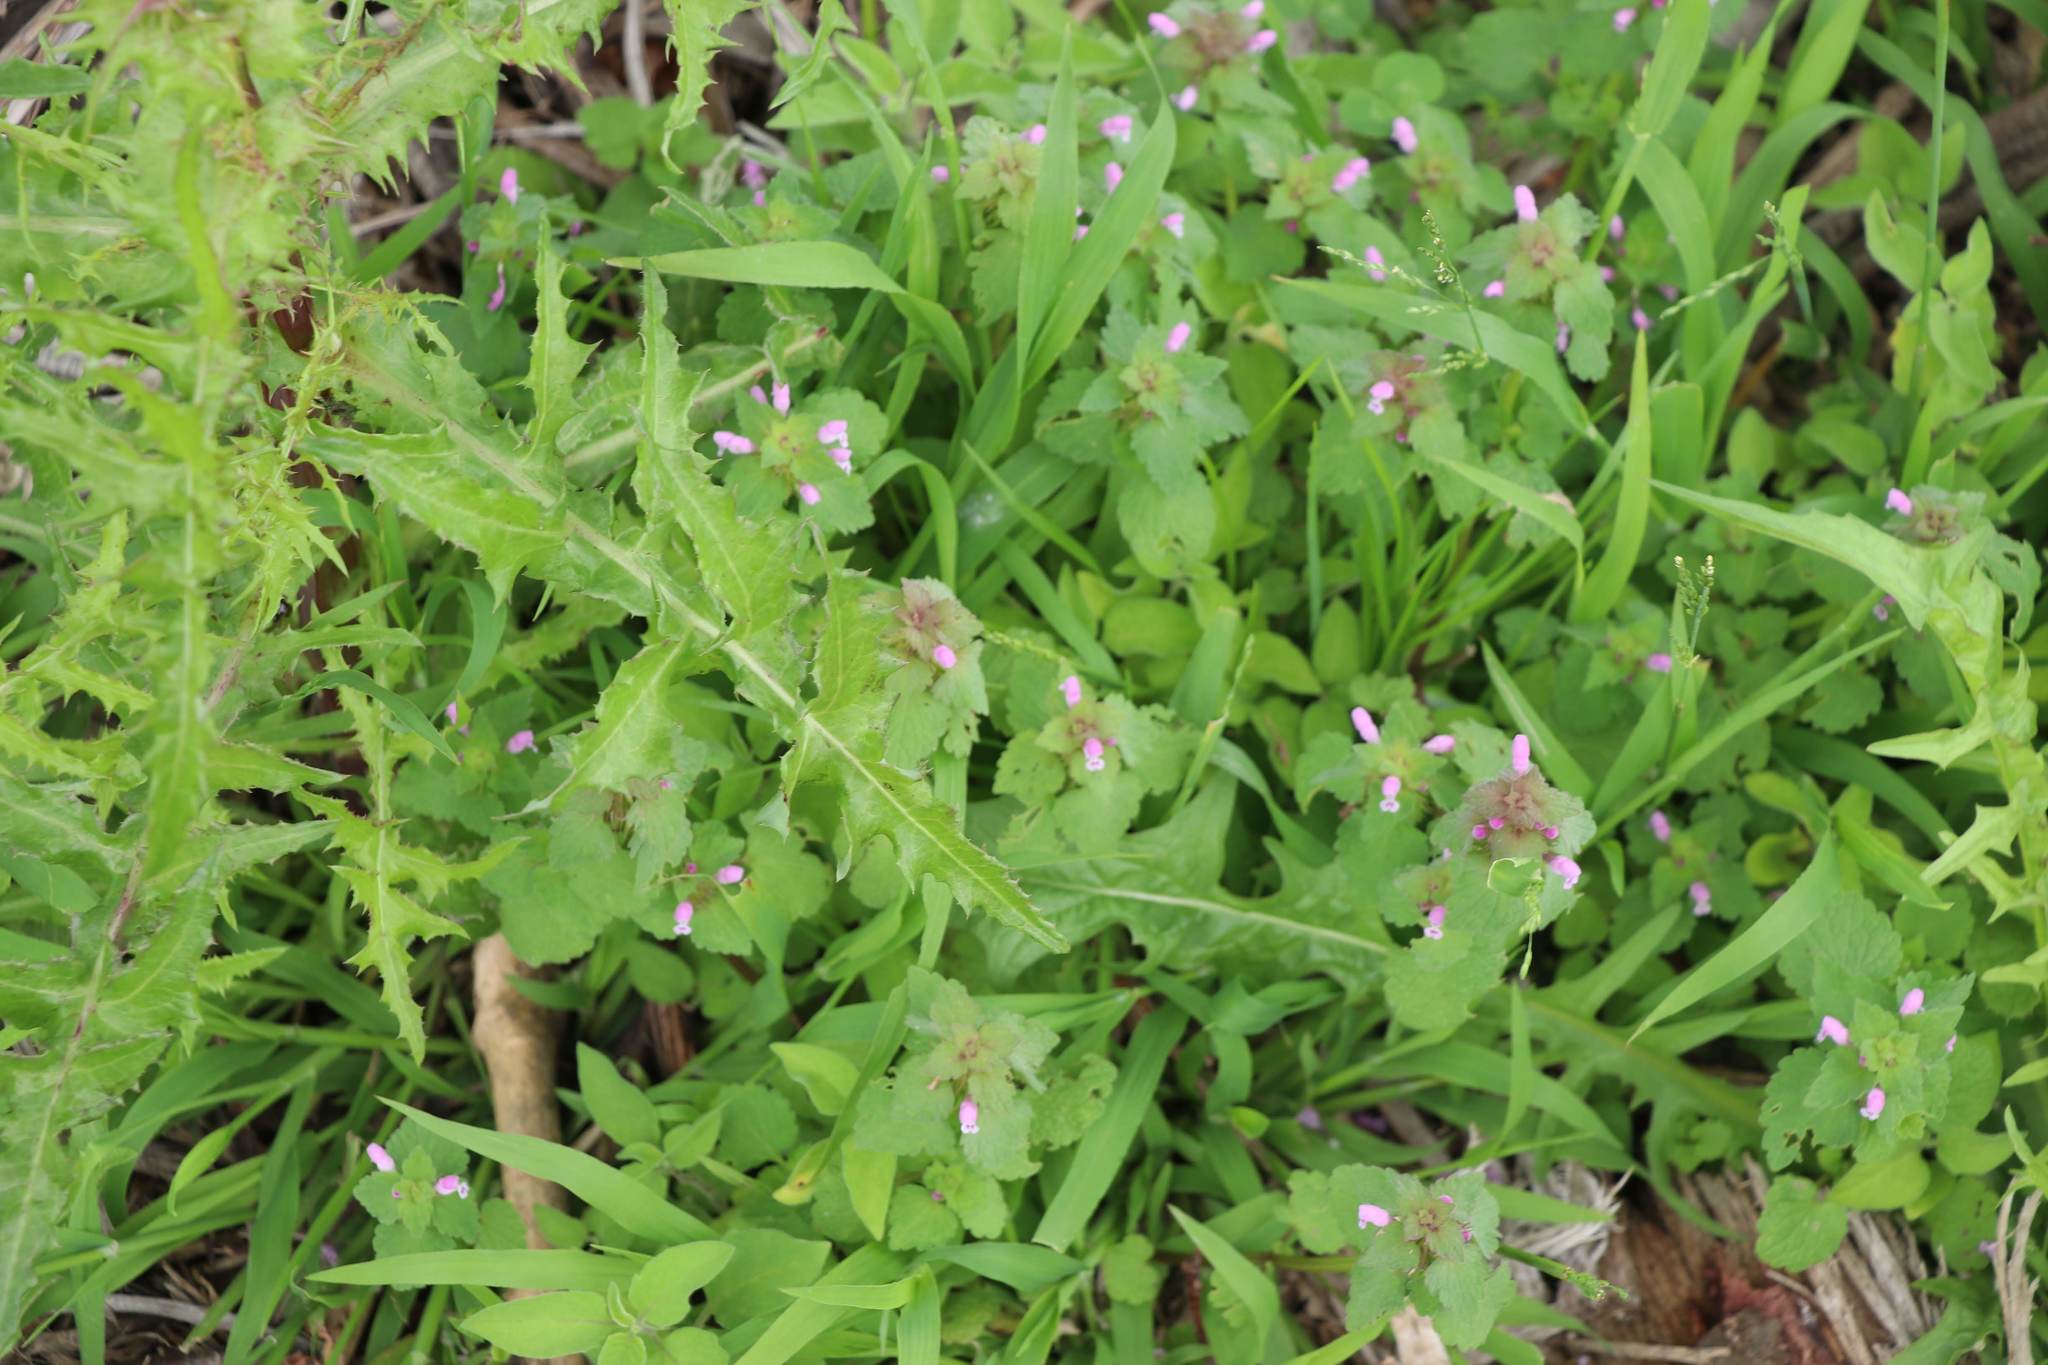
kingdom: Plantae
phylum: Tracheophyta
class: Magnoliopsida
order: Lamiales
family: Lamiaceae
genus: Lamium
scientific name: Lamium purpureum
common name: Red dead-nettle
